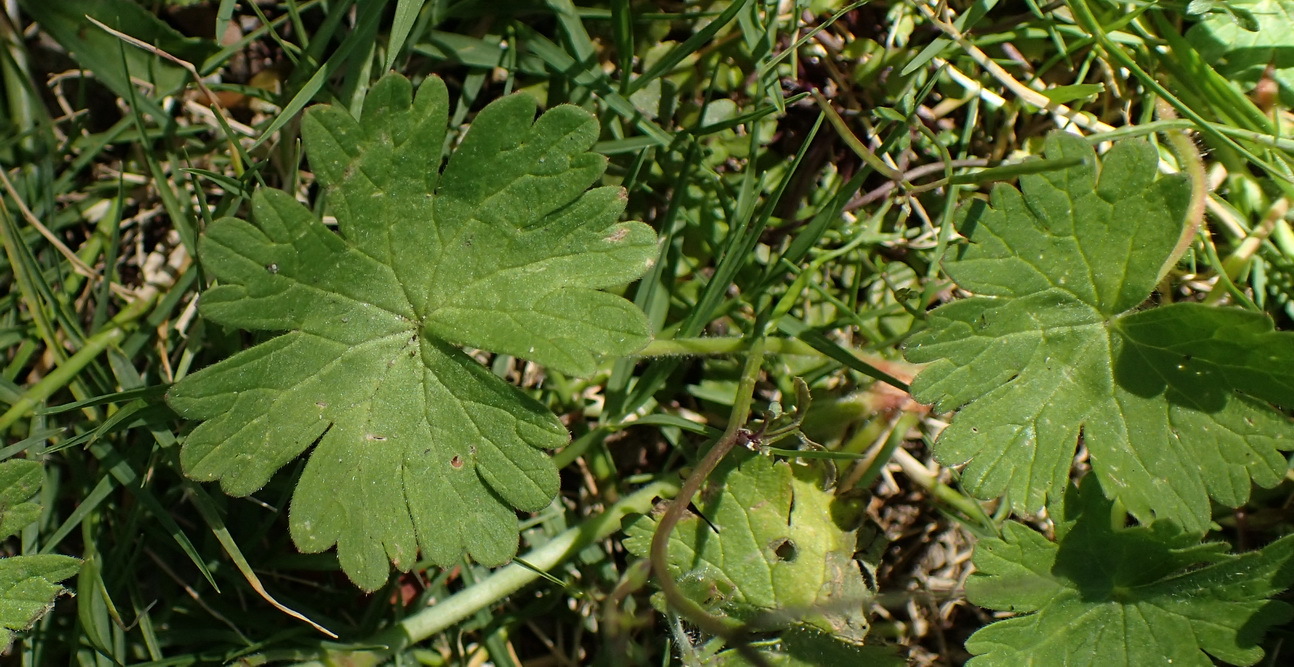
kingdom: Plantae
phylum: Tracheophyta
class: Magnoliopsida
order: Geraniales
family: Geraniaceae
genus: Geranium
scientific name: Geranium molle
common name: Dove's-foot crane's-bill
